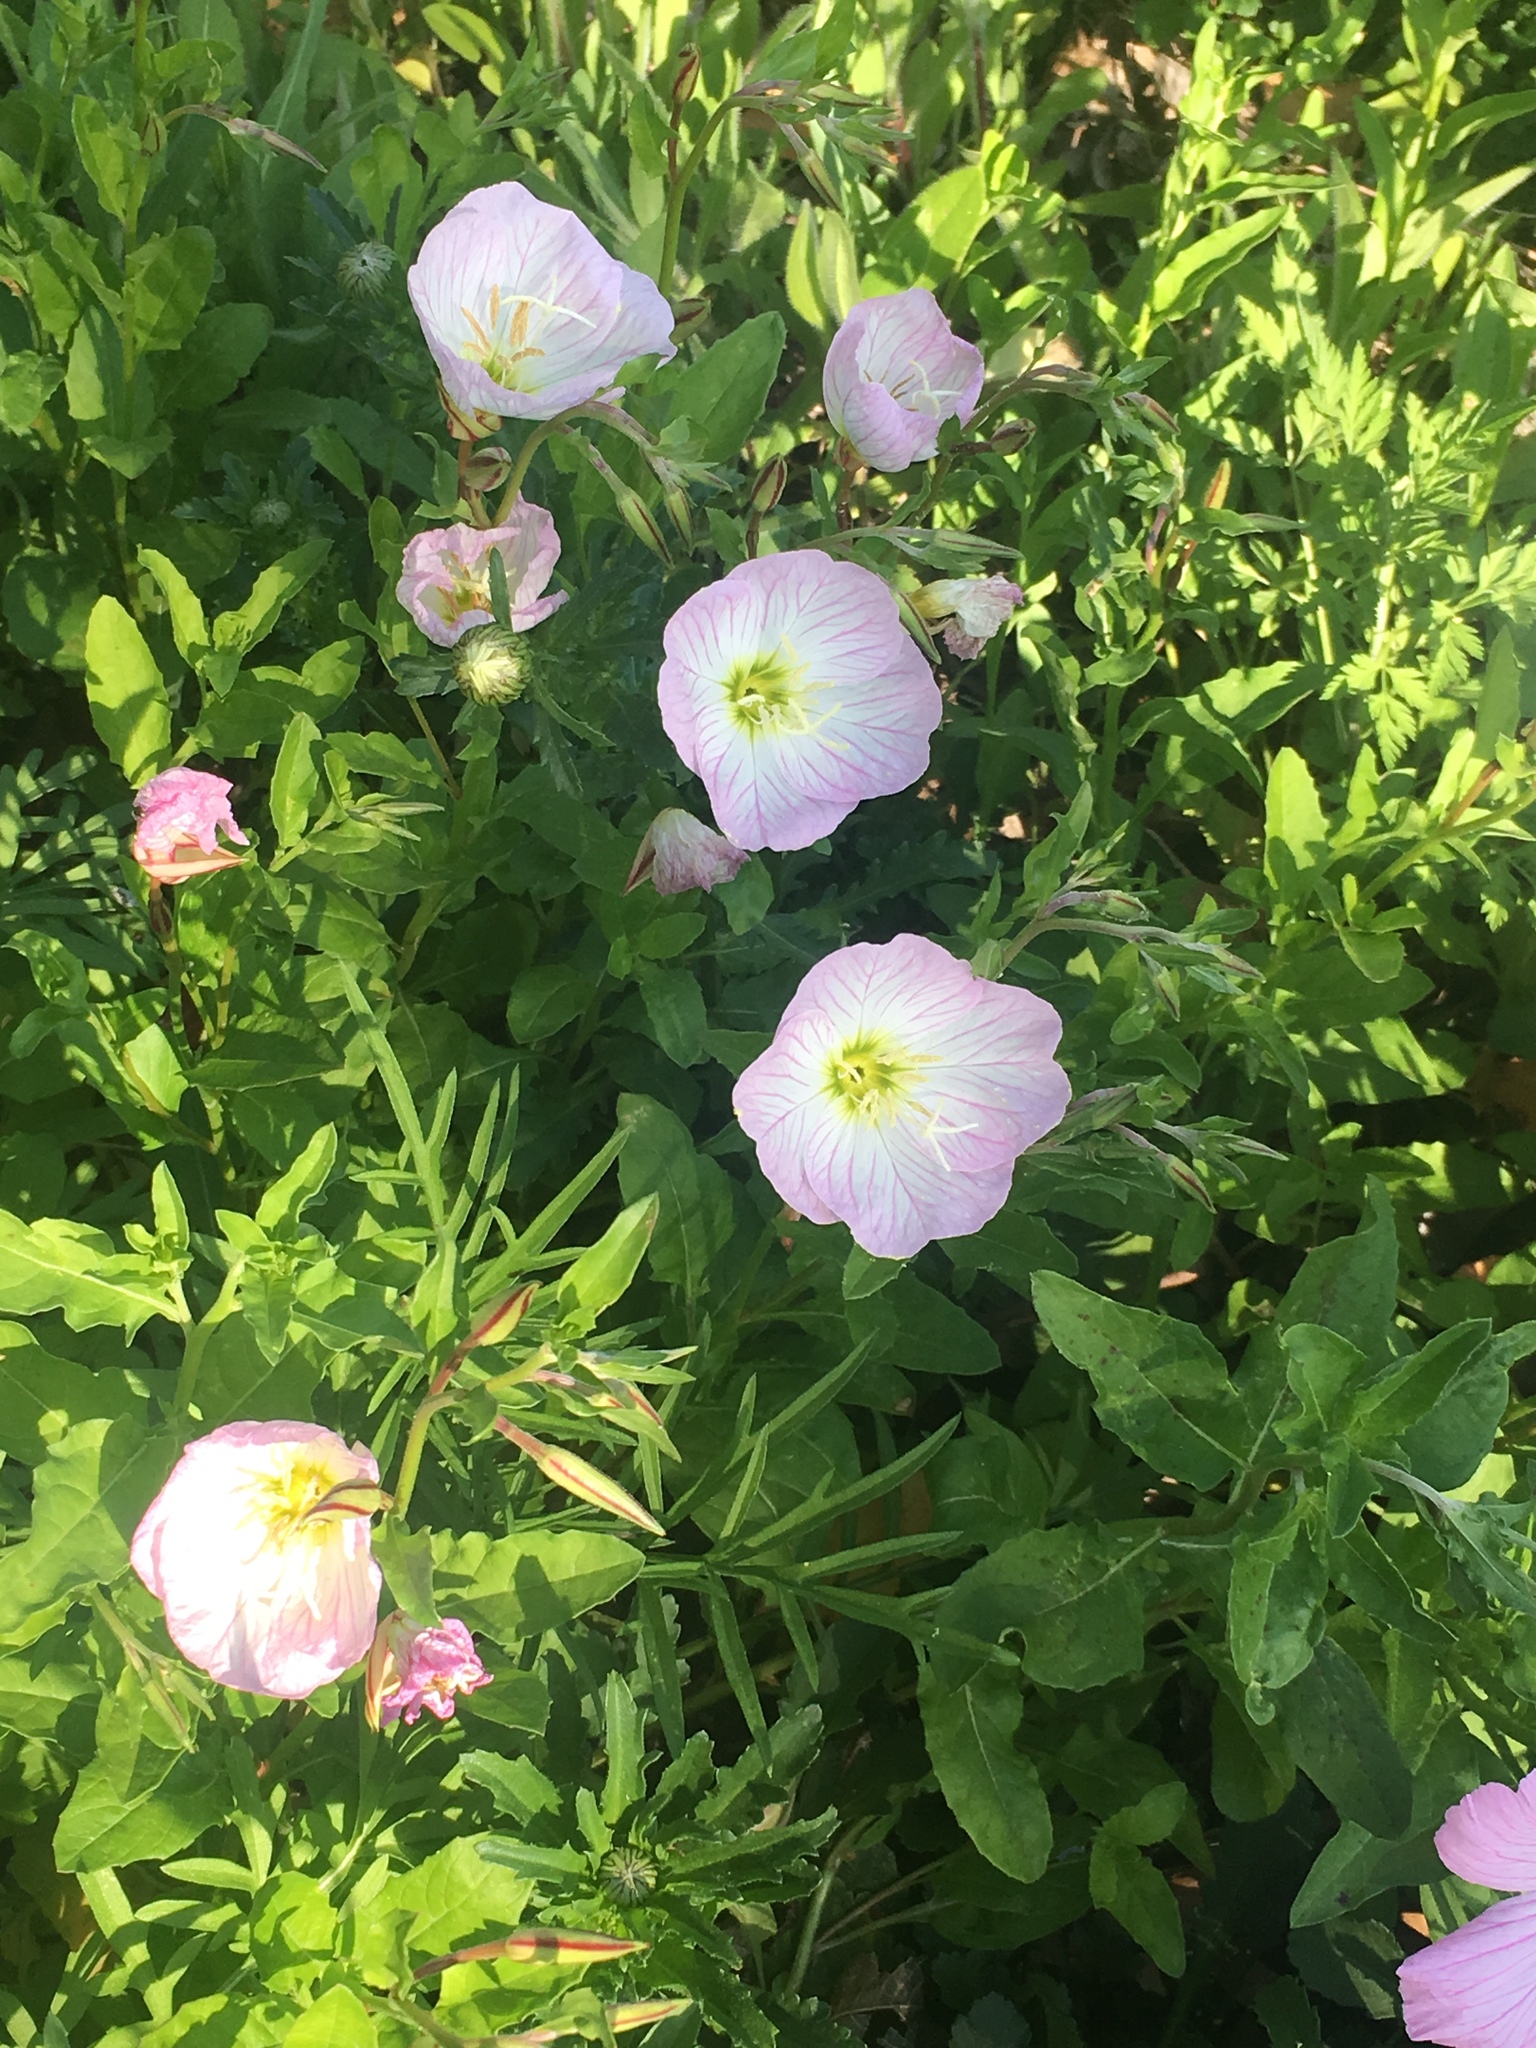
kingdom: Plantae
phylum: Tracheophyta
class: Magnoliopsida
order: Myrtales
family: Onagraceae
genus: Oenothera
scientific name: Oenothera speciosa
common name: White evening-primrose
